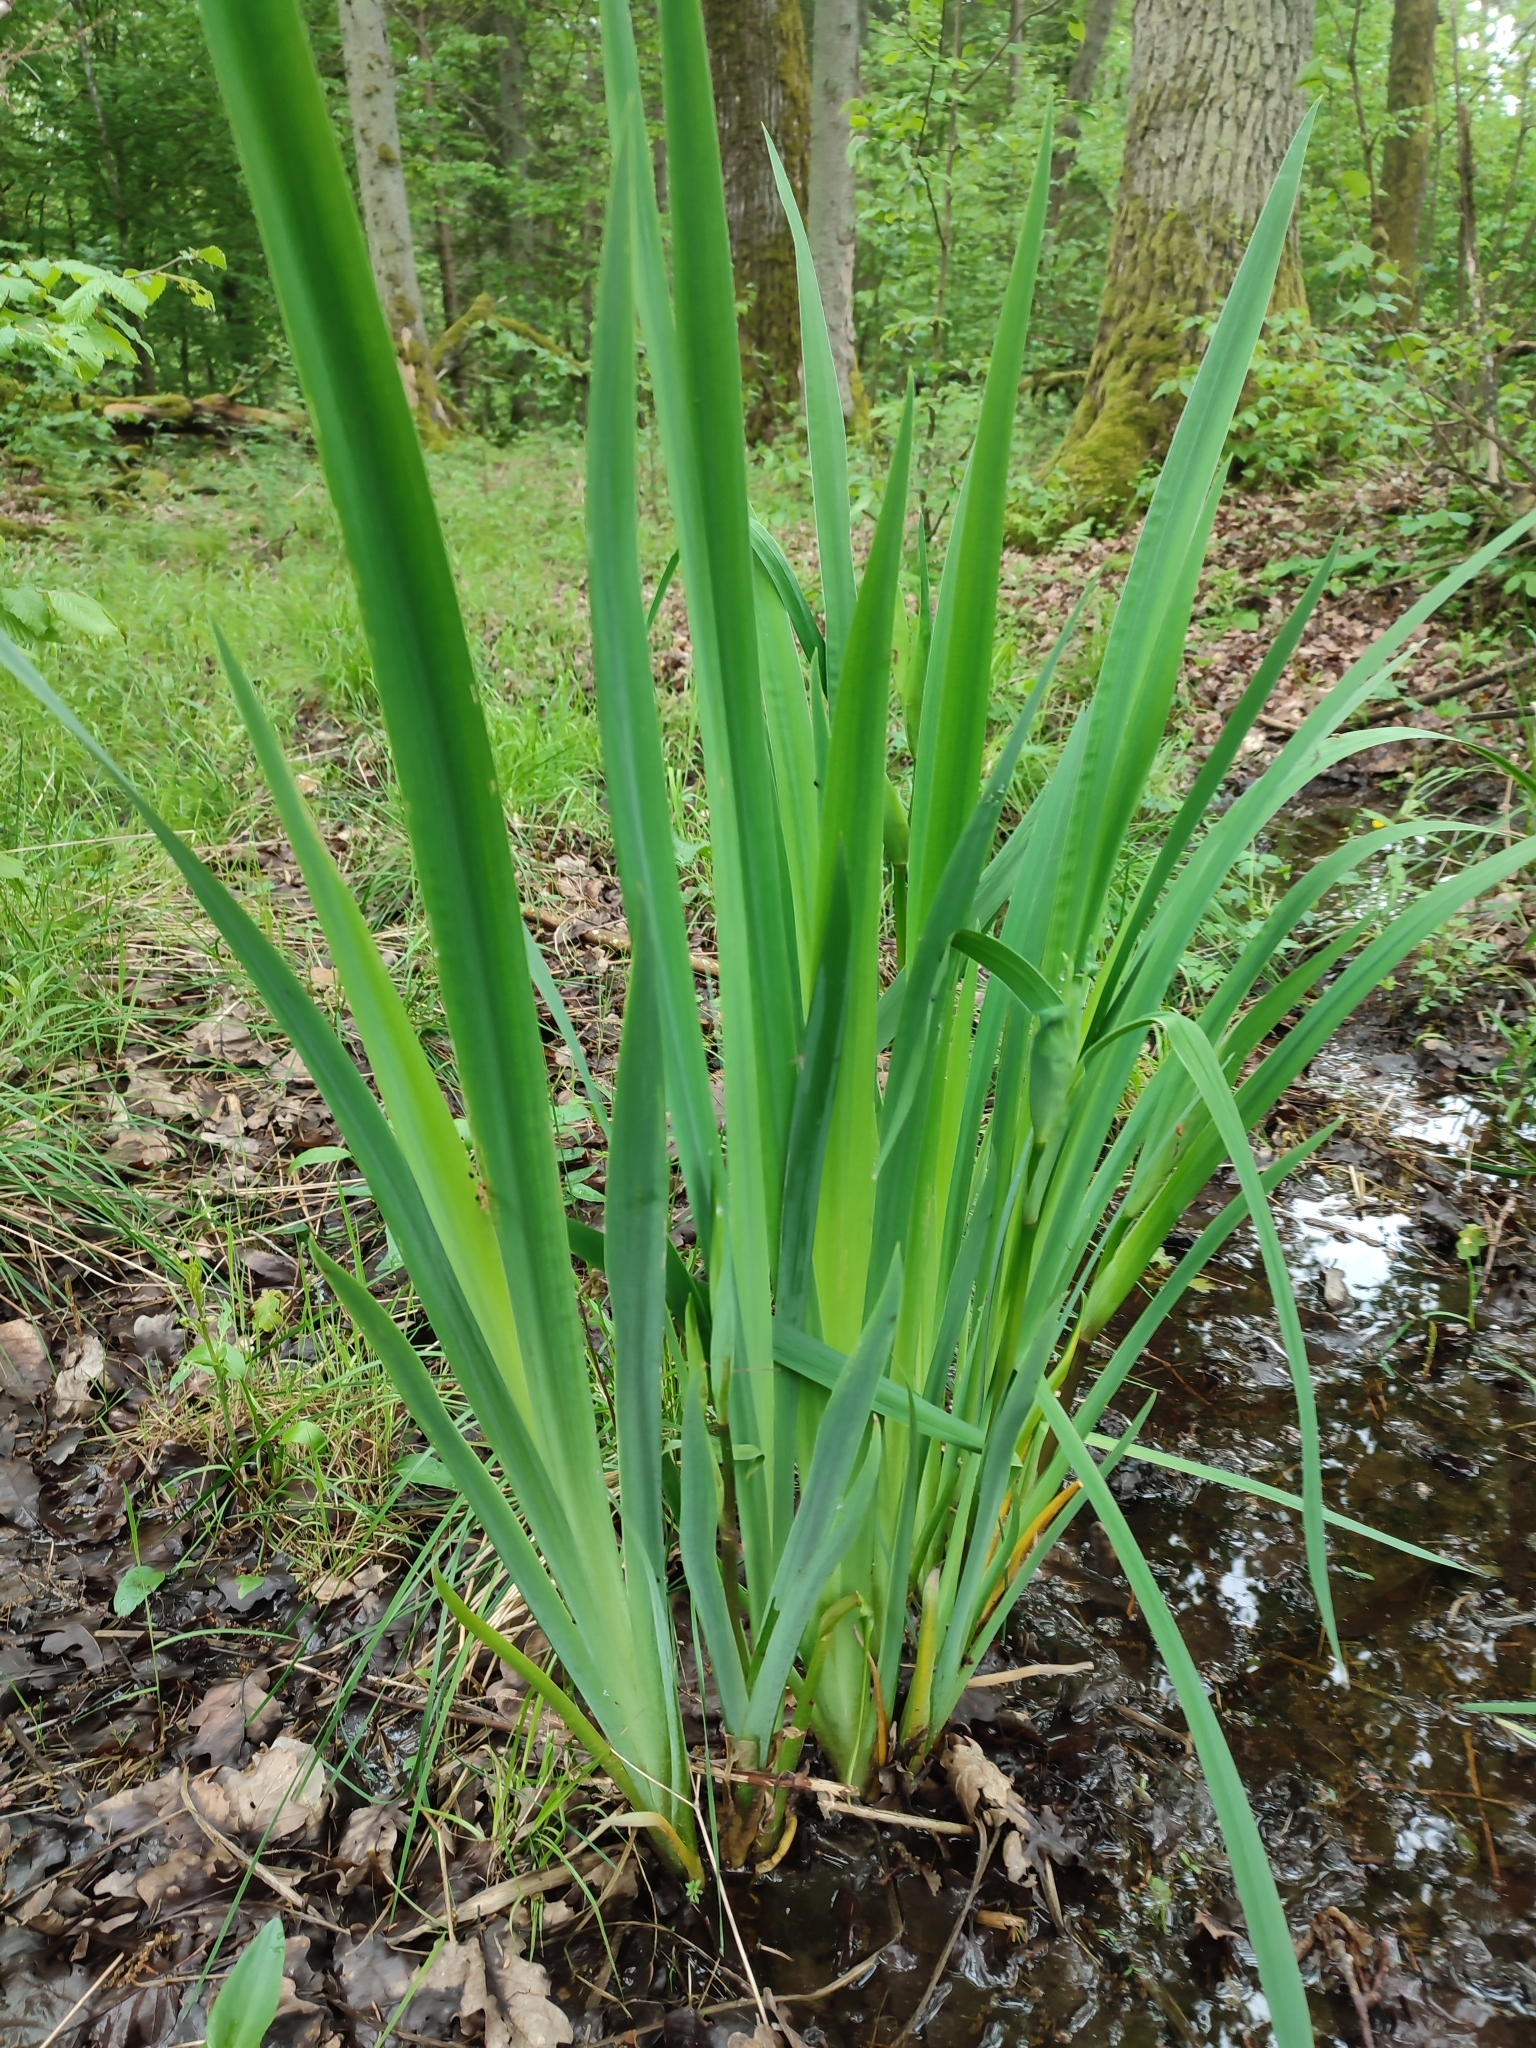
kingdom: Plantae
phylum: Tracheophyta
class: Liliopsida
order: Asparagales
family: Iridaceae
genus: Iris
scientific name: Iris pseudacorus
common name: Yellow flag
